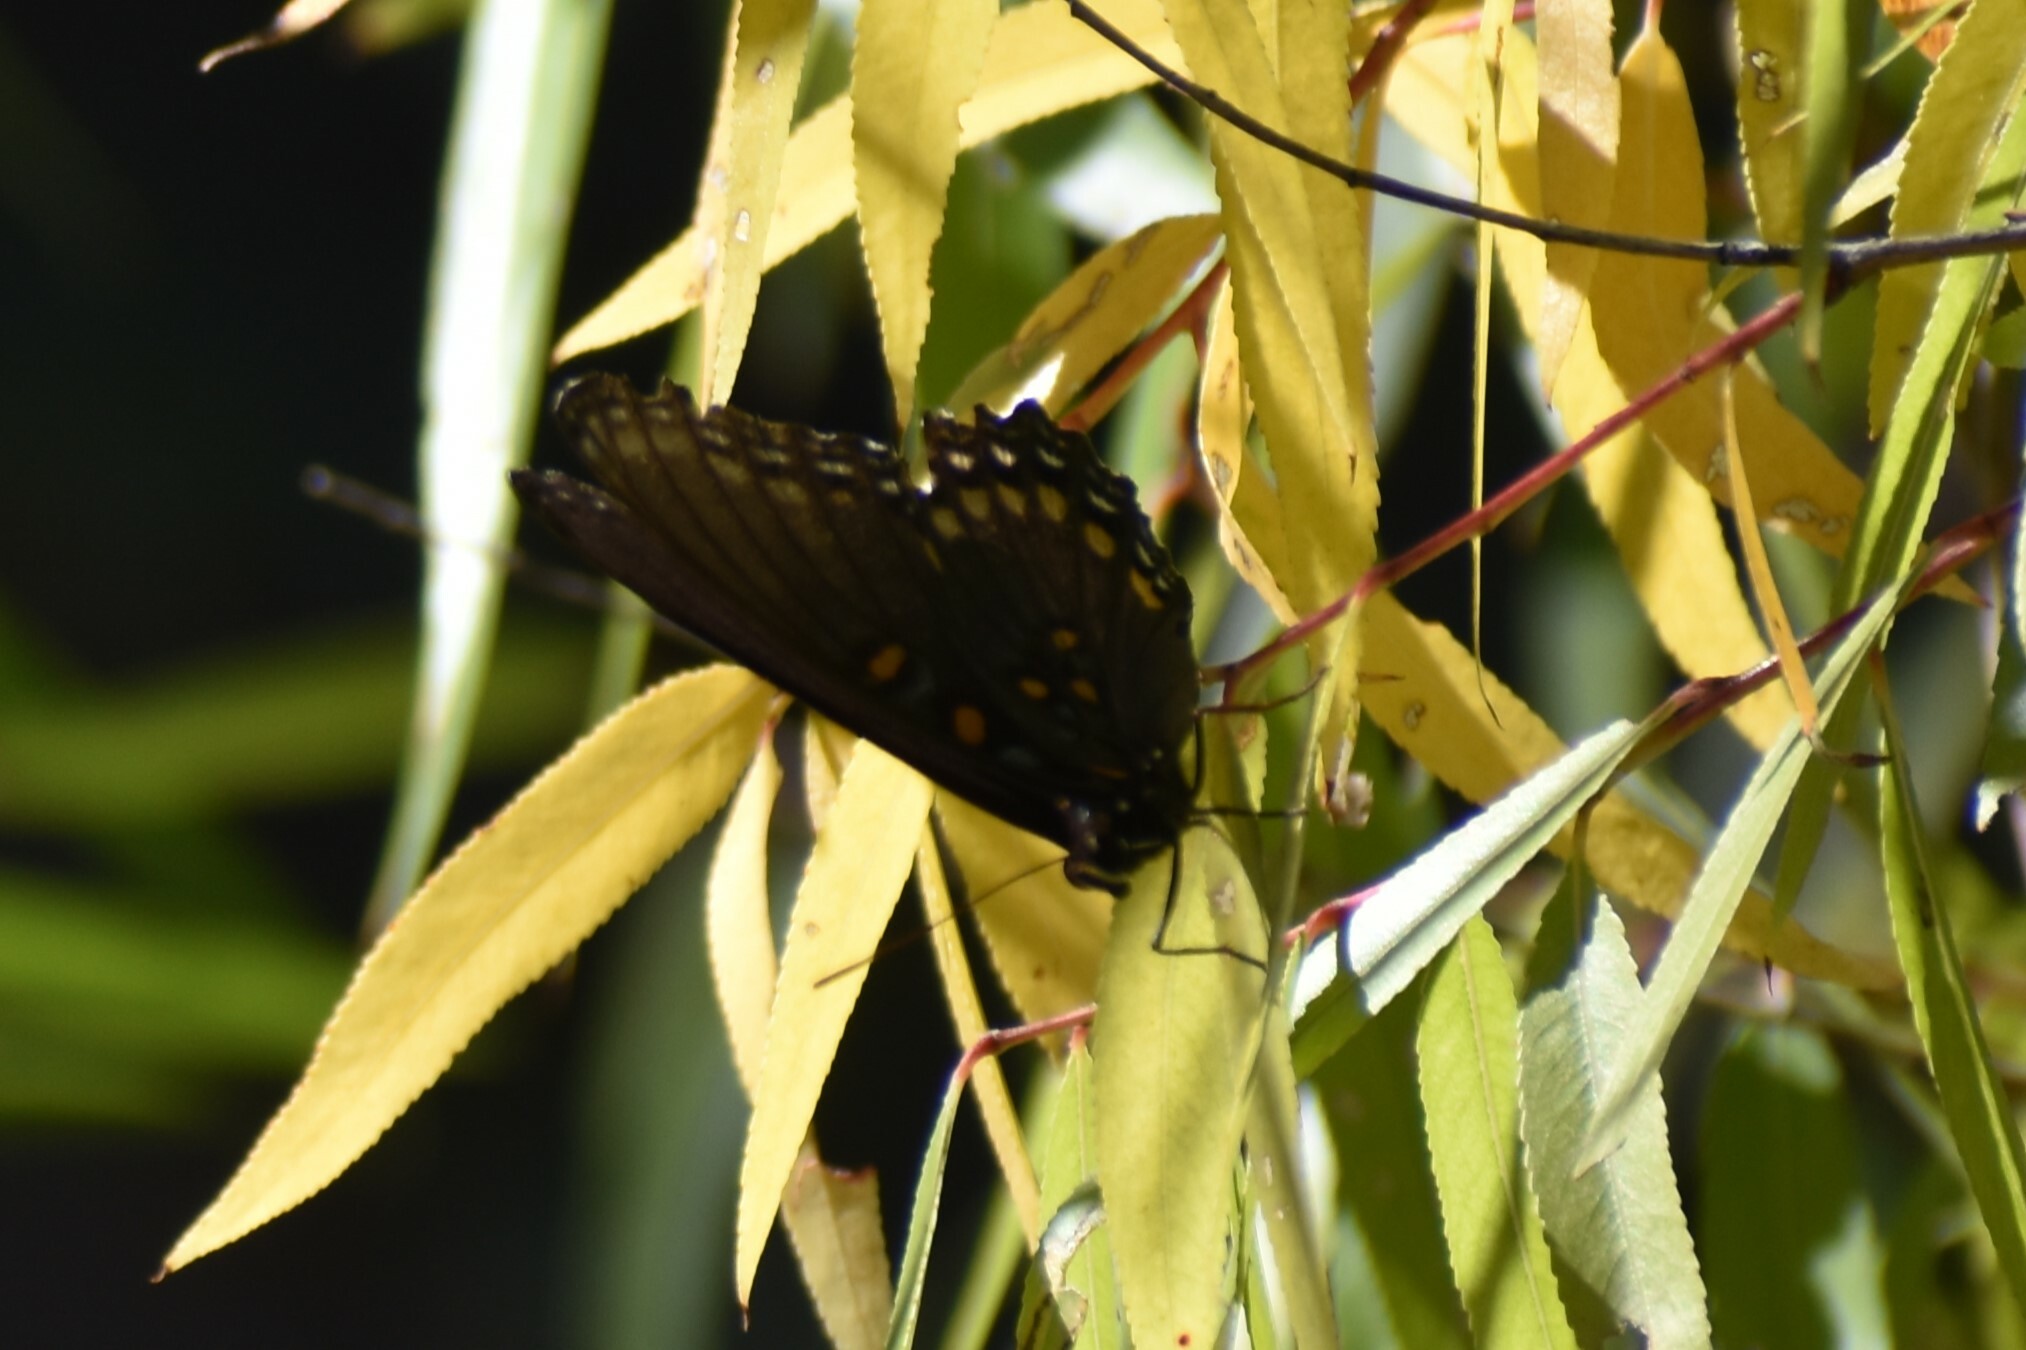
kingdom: Animalia
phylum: Arthropoda
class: Insecta
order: Lepidoptera
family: Nymphalidae
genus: Limenitis
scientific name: Limenitis arthemis
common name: Red-spotted admiral
